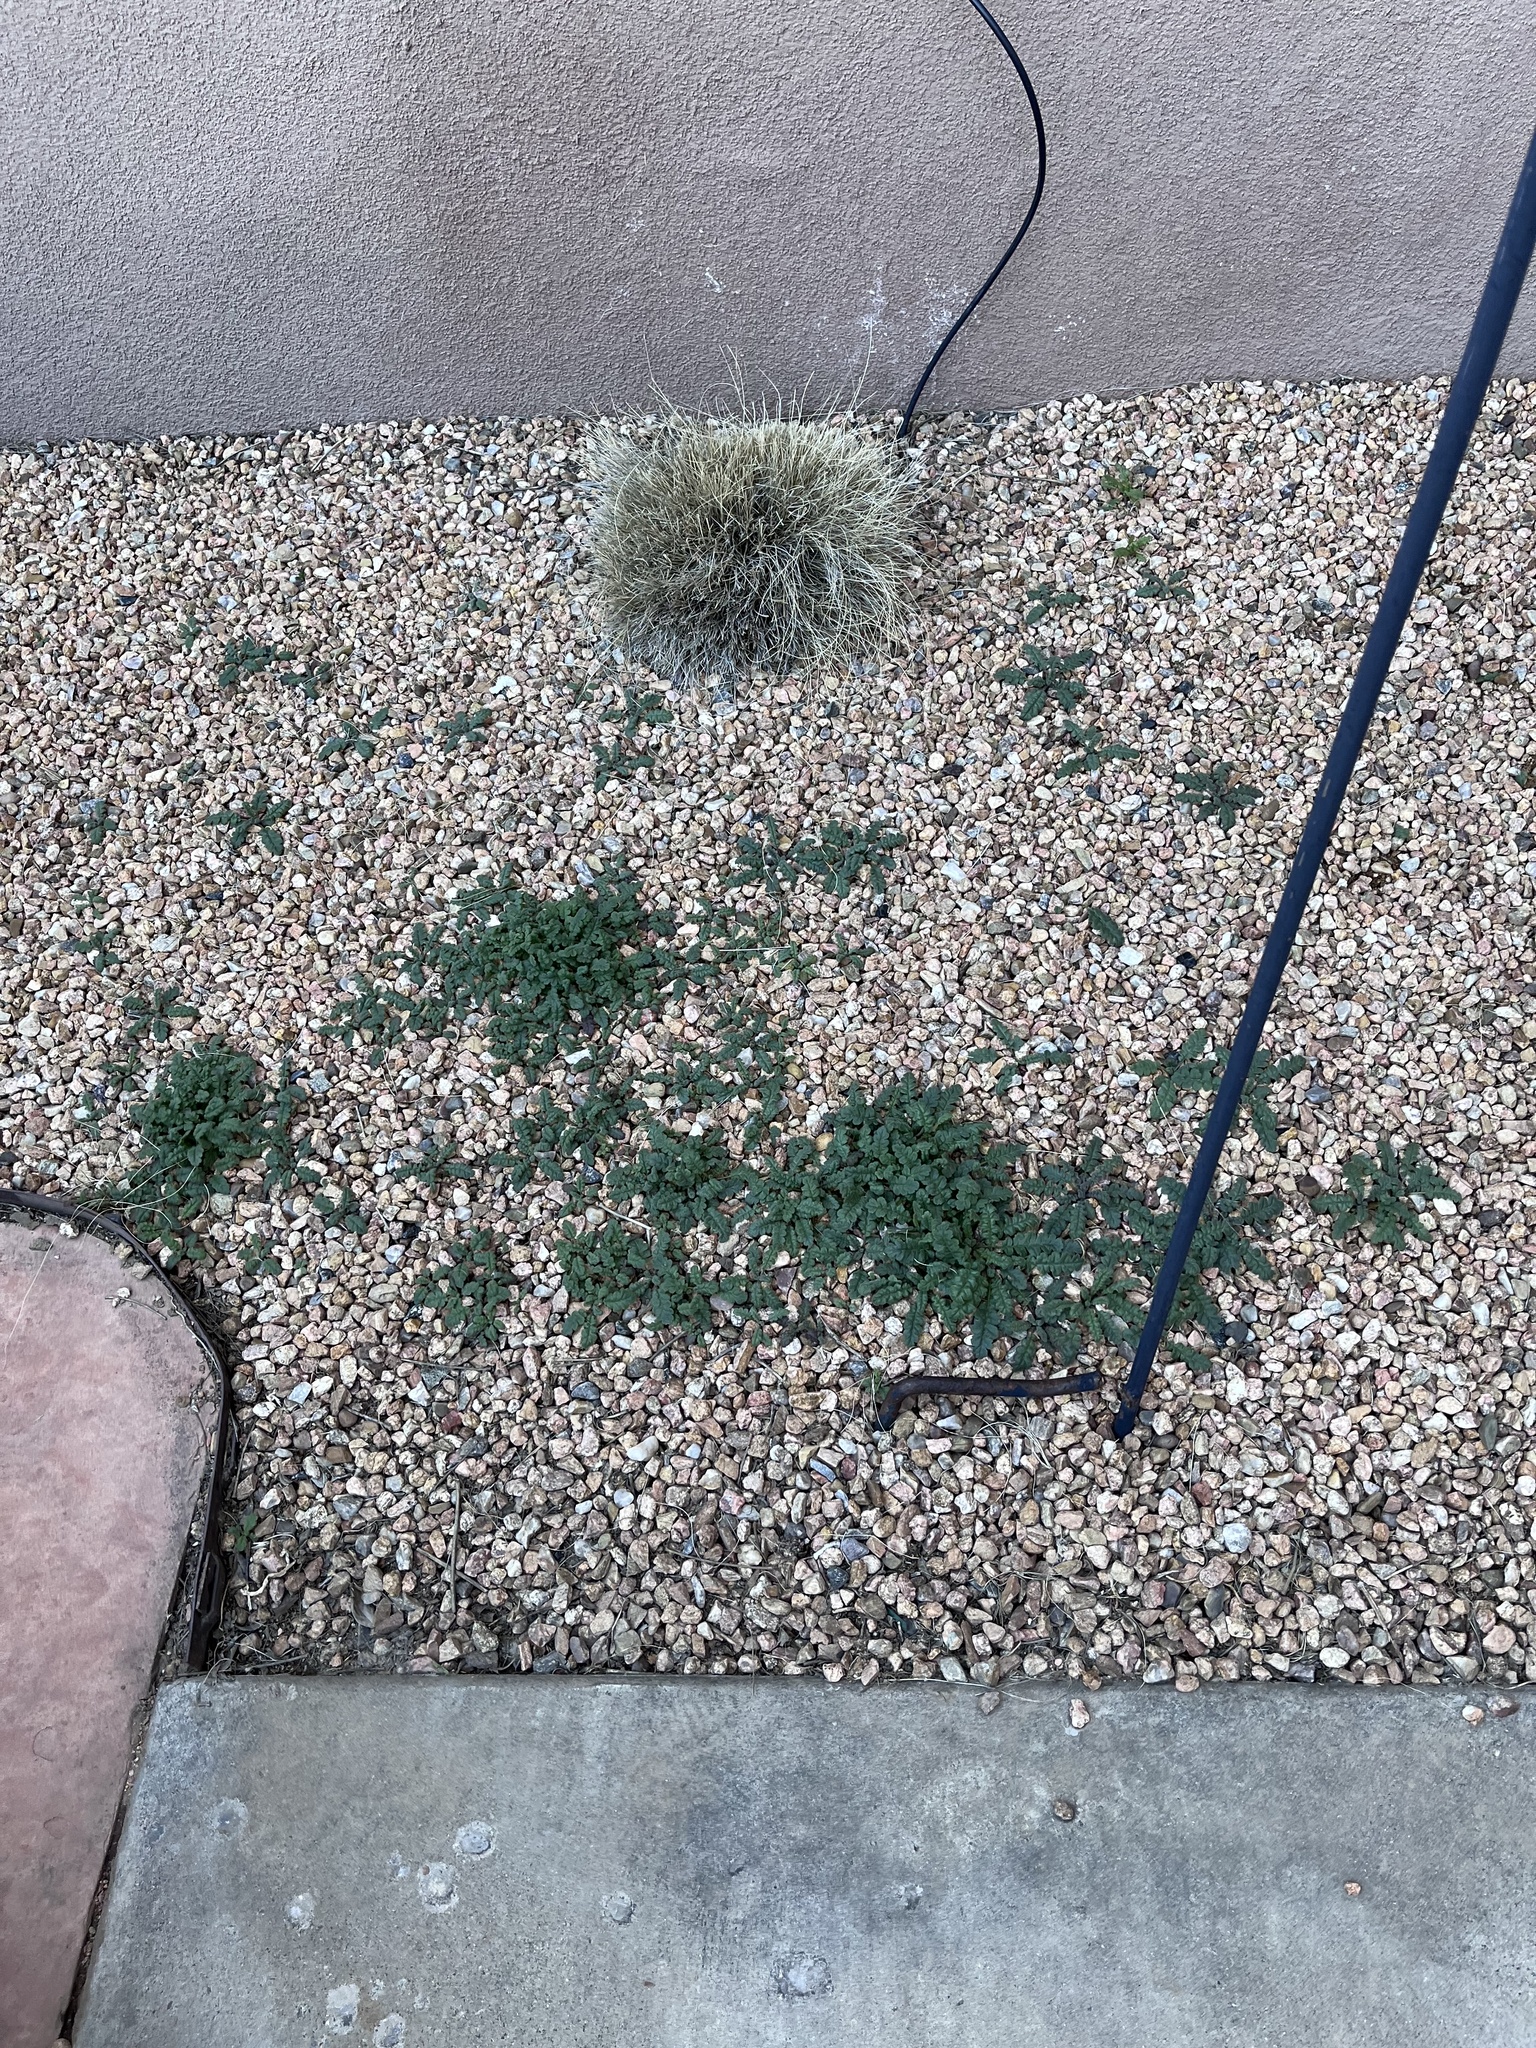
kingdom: Plantae
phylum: Tracheophyta
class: Magnoliopsida
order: Boraginales
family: Hydrophyllaceae
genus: Phacelia
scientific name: Phacelia
